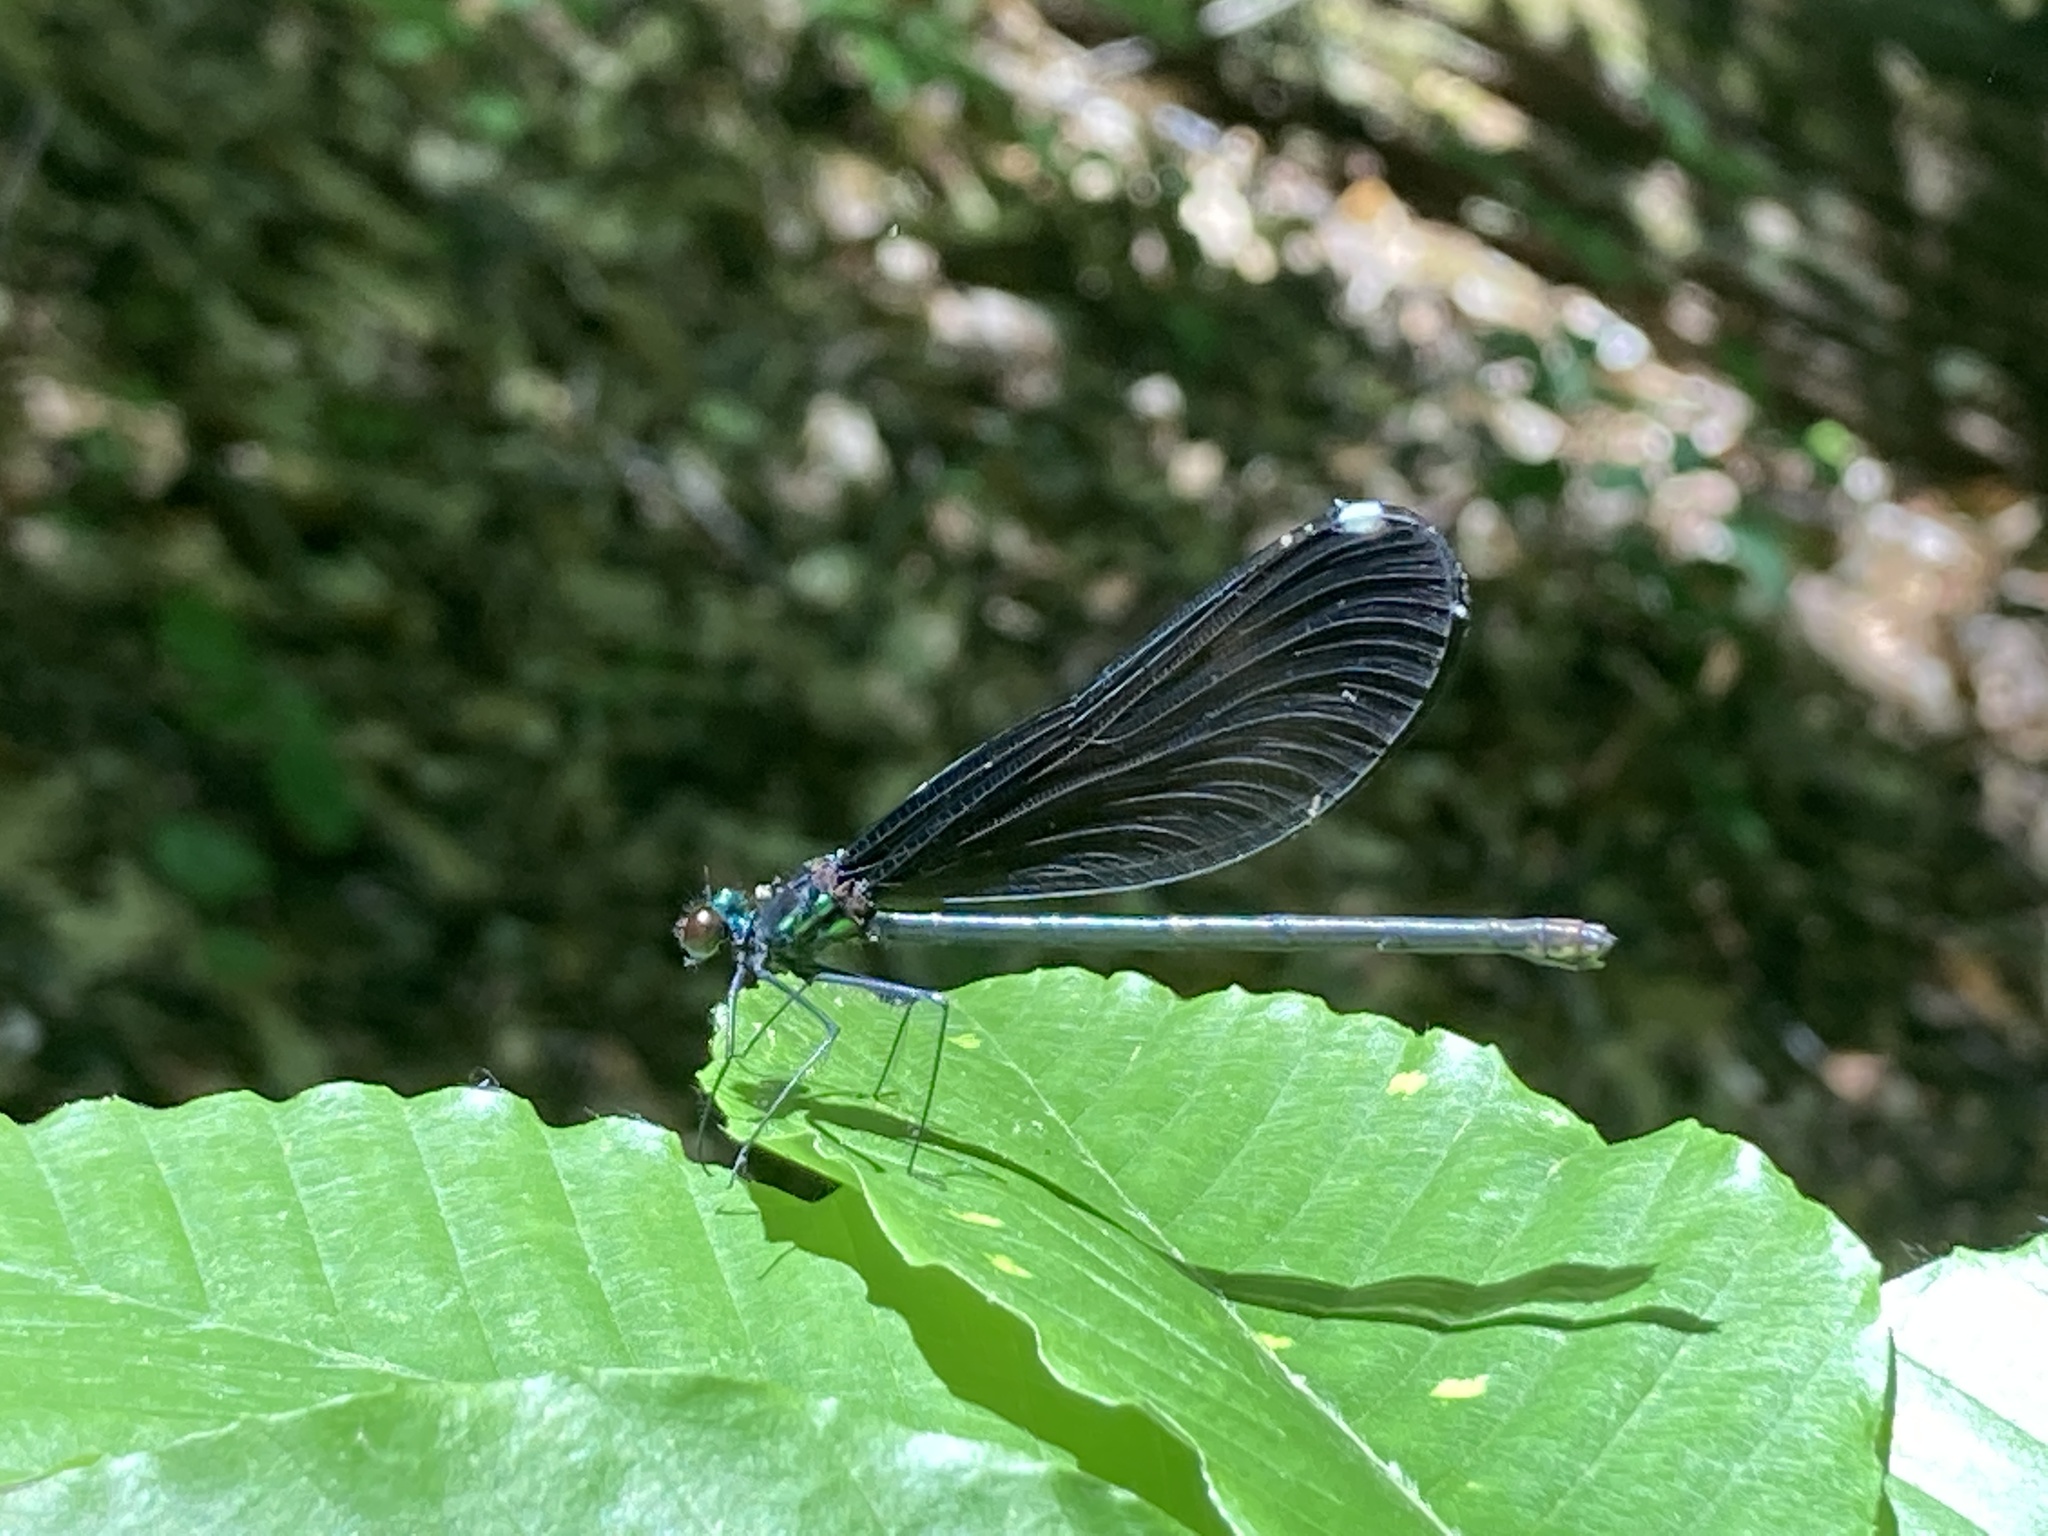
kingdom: Animalia
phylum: Arthropoda
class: Insecta
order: Odonata
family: Calopterygidae
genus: Calopteryx
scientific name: Calopteryx maculata
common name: Ebony jewelwing
